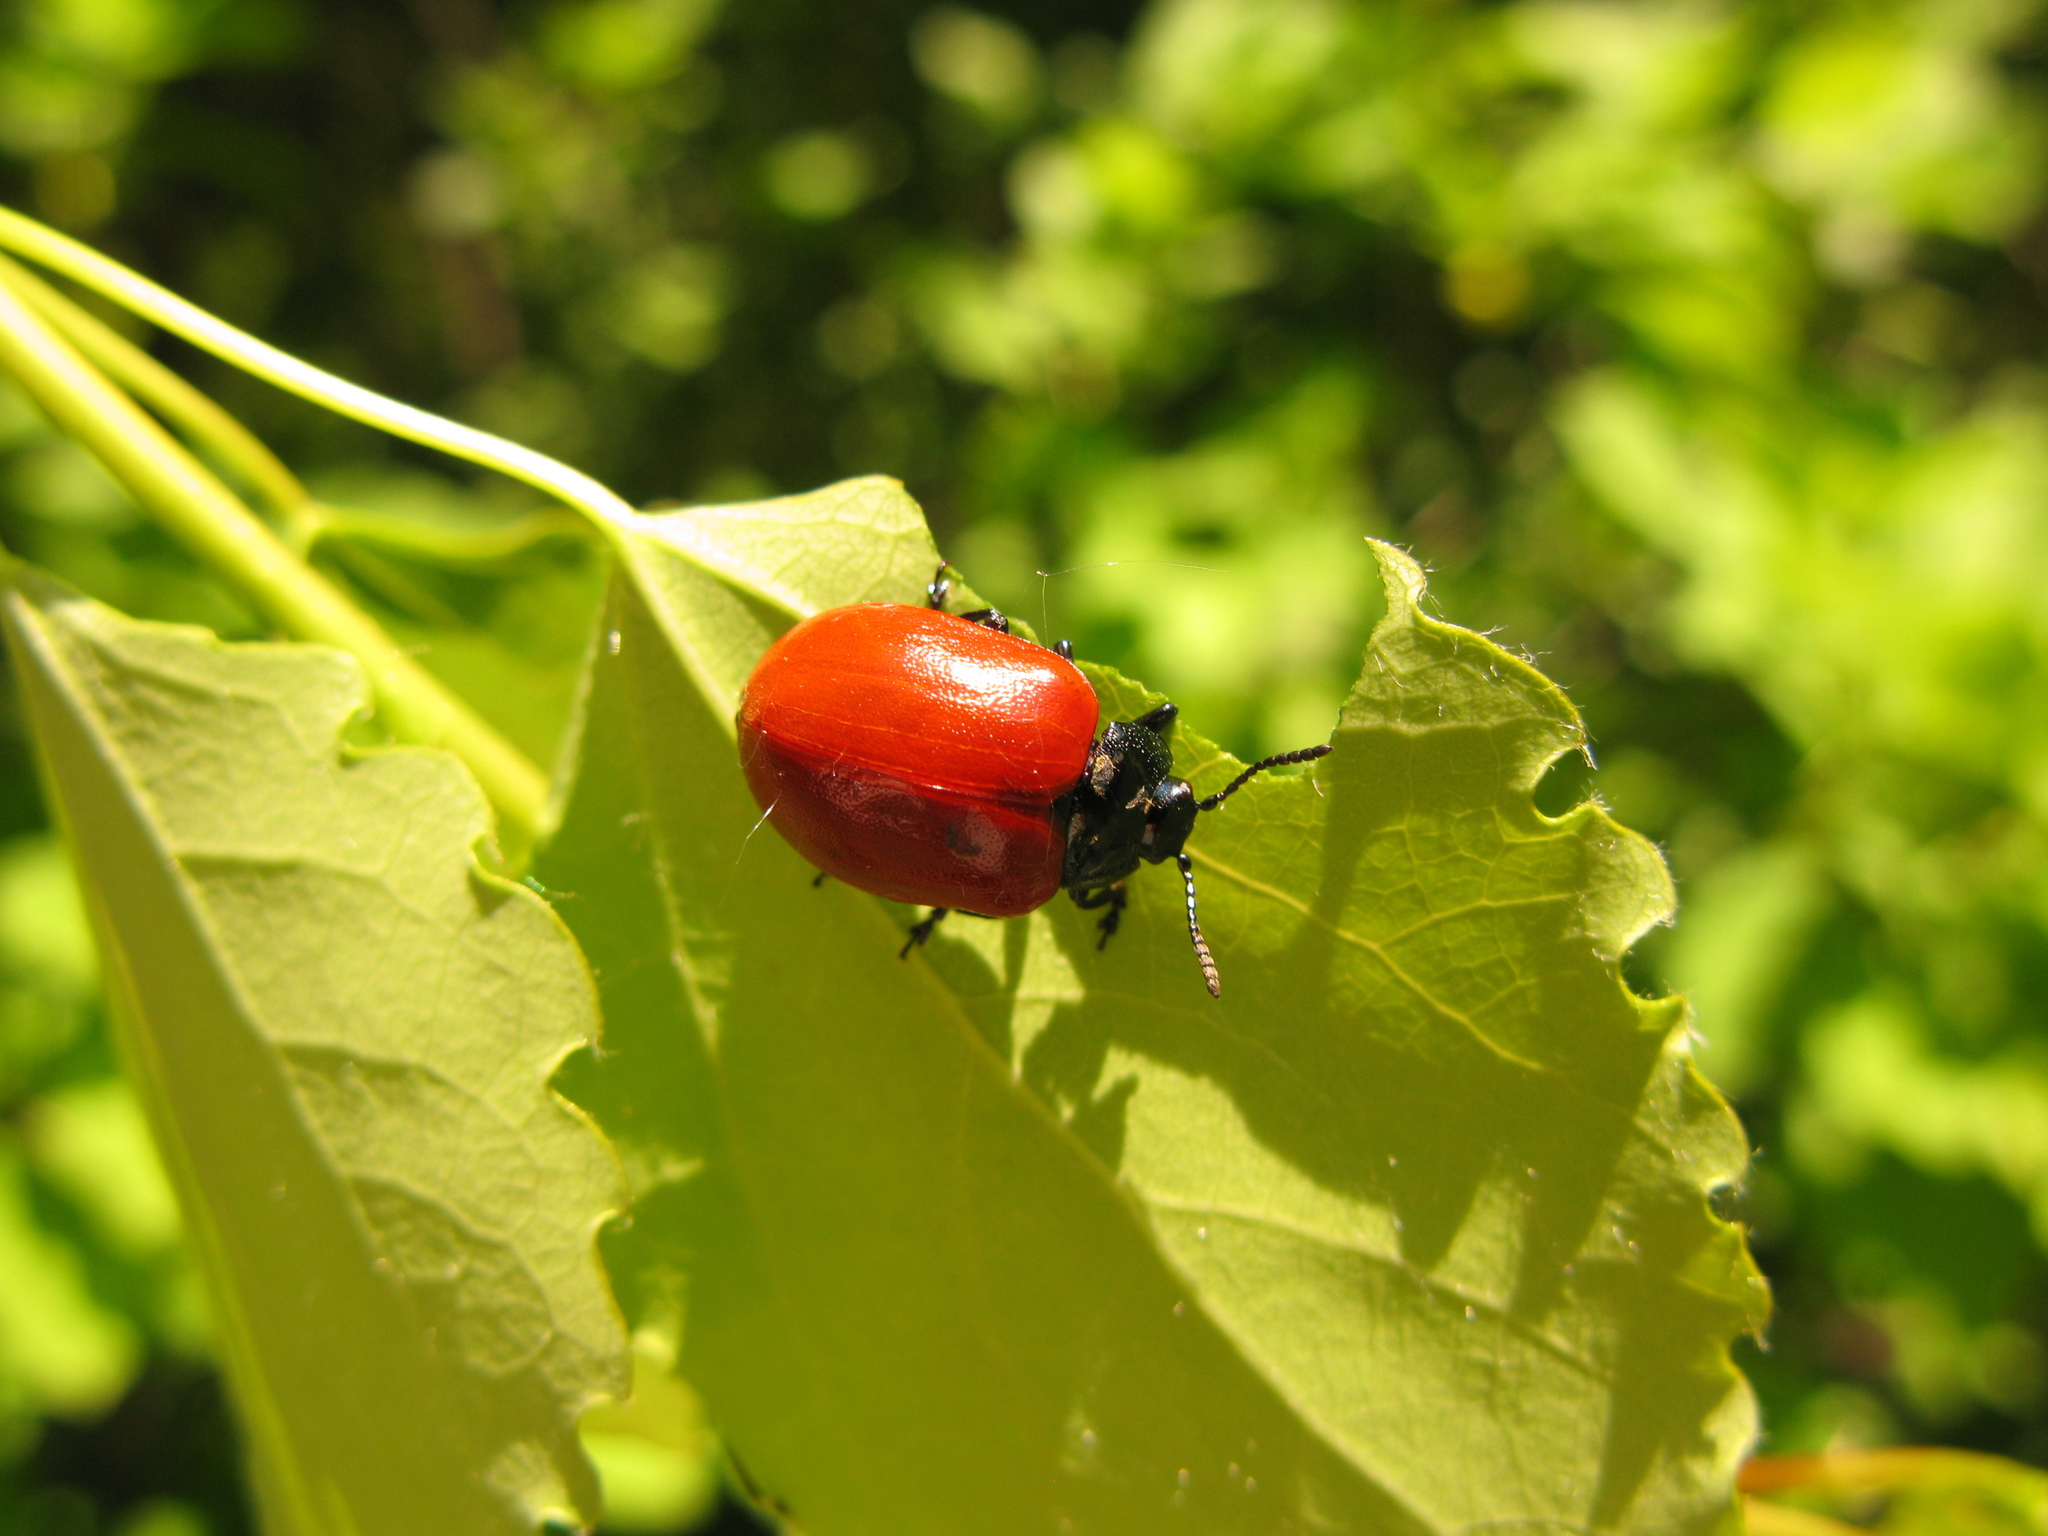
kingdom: Animalia
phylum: Arthropoda
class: Insecta
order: Coleoptera
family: Chrysomelidae
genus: Chrysomela
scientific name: Chrysomela populi
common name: Red poplar leaf beetle
